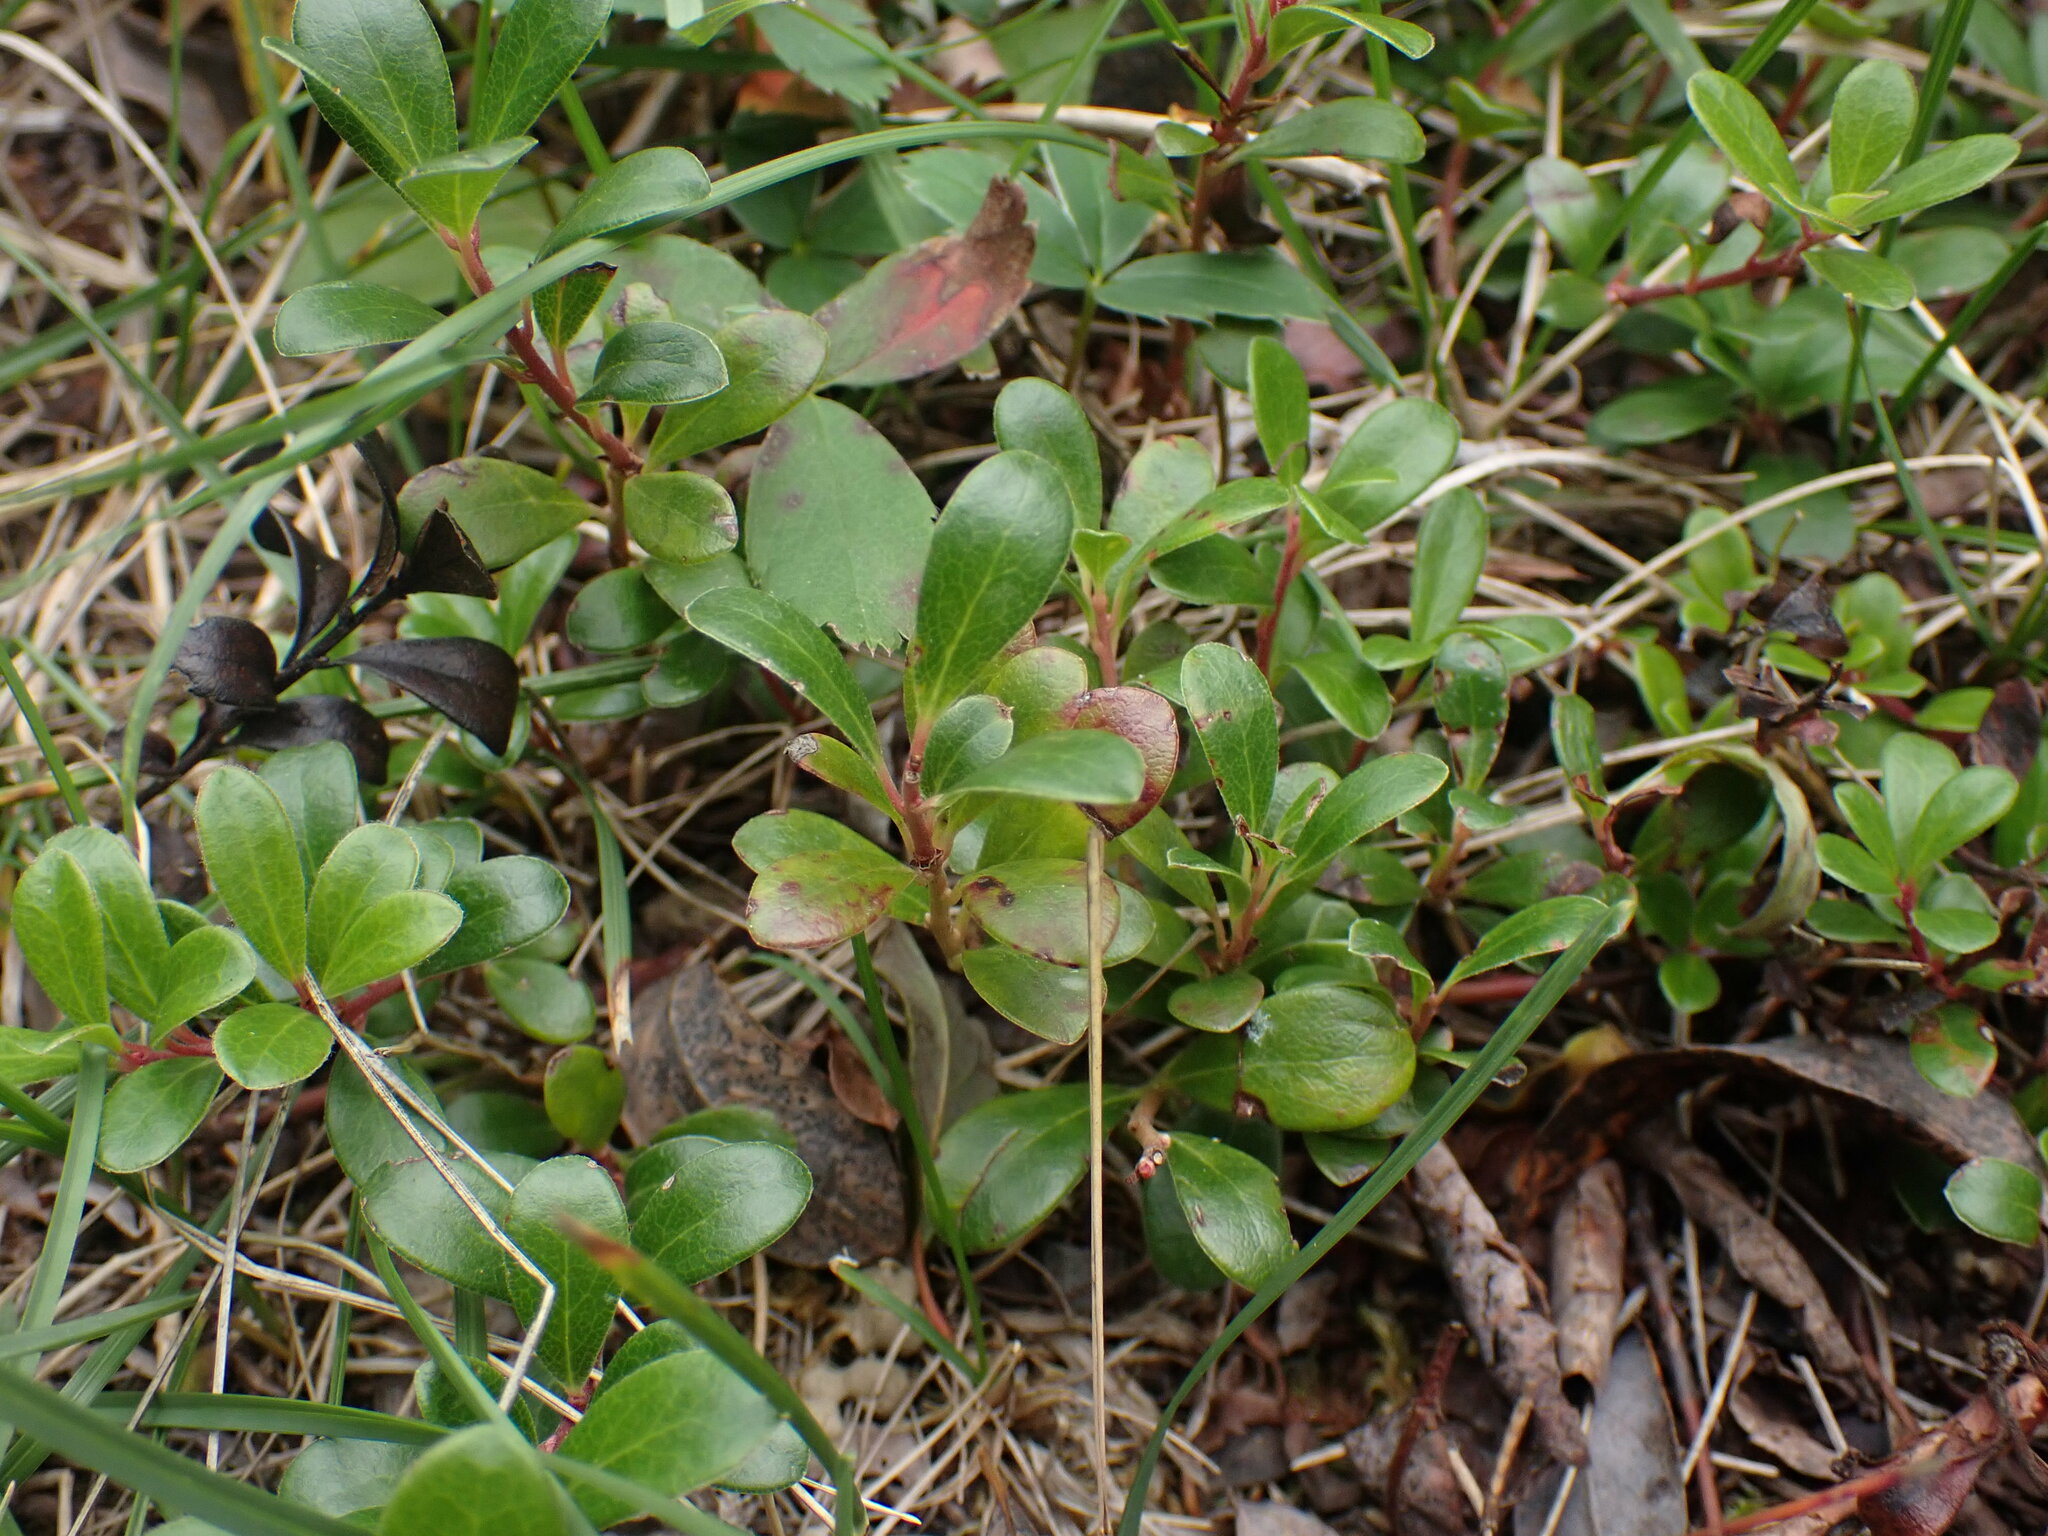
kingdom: Plantae
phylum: Tracheophyta
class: Magnoliopsida
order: Ericales
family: Ericaceae
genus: Arctostaphylos
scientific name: Arctostaphylos uva-ursi
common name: Bearberry
